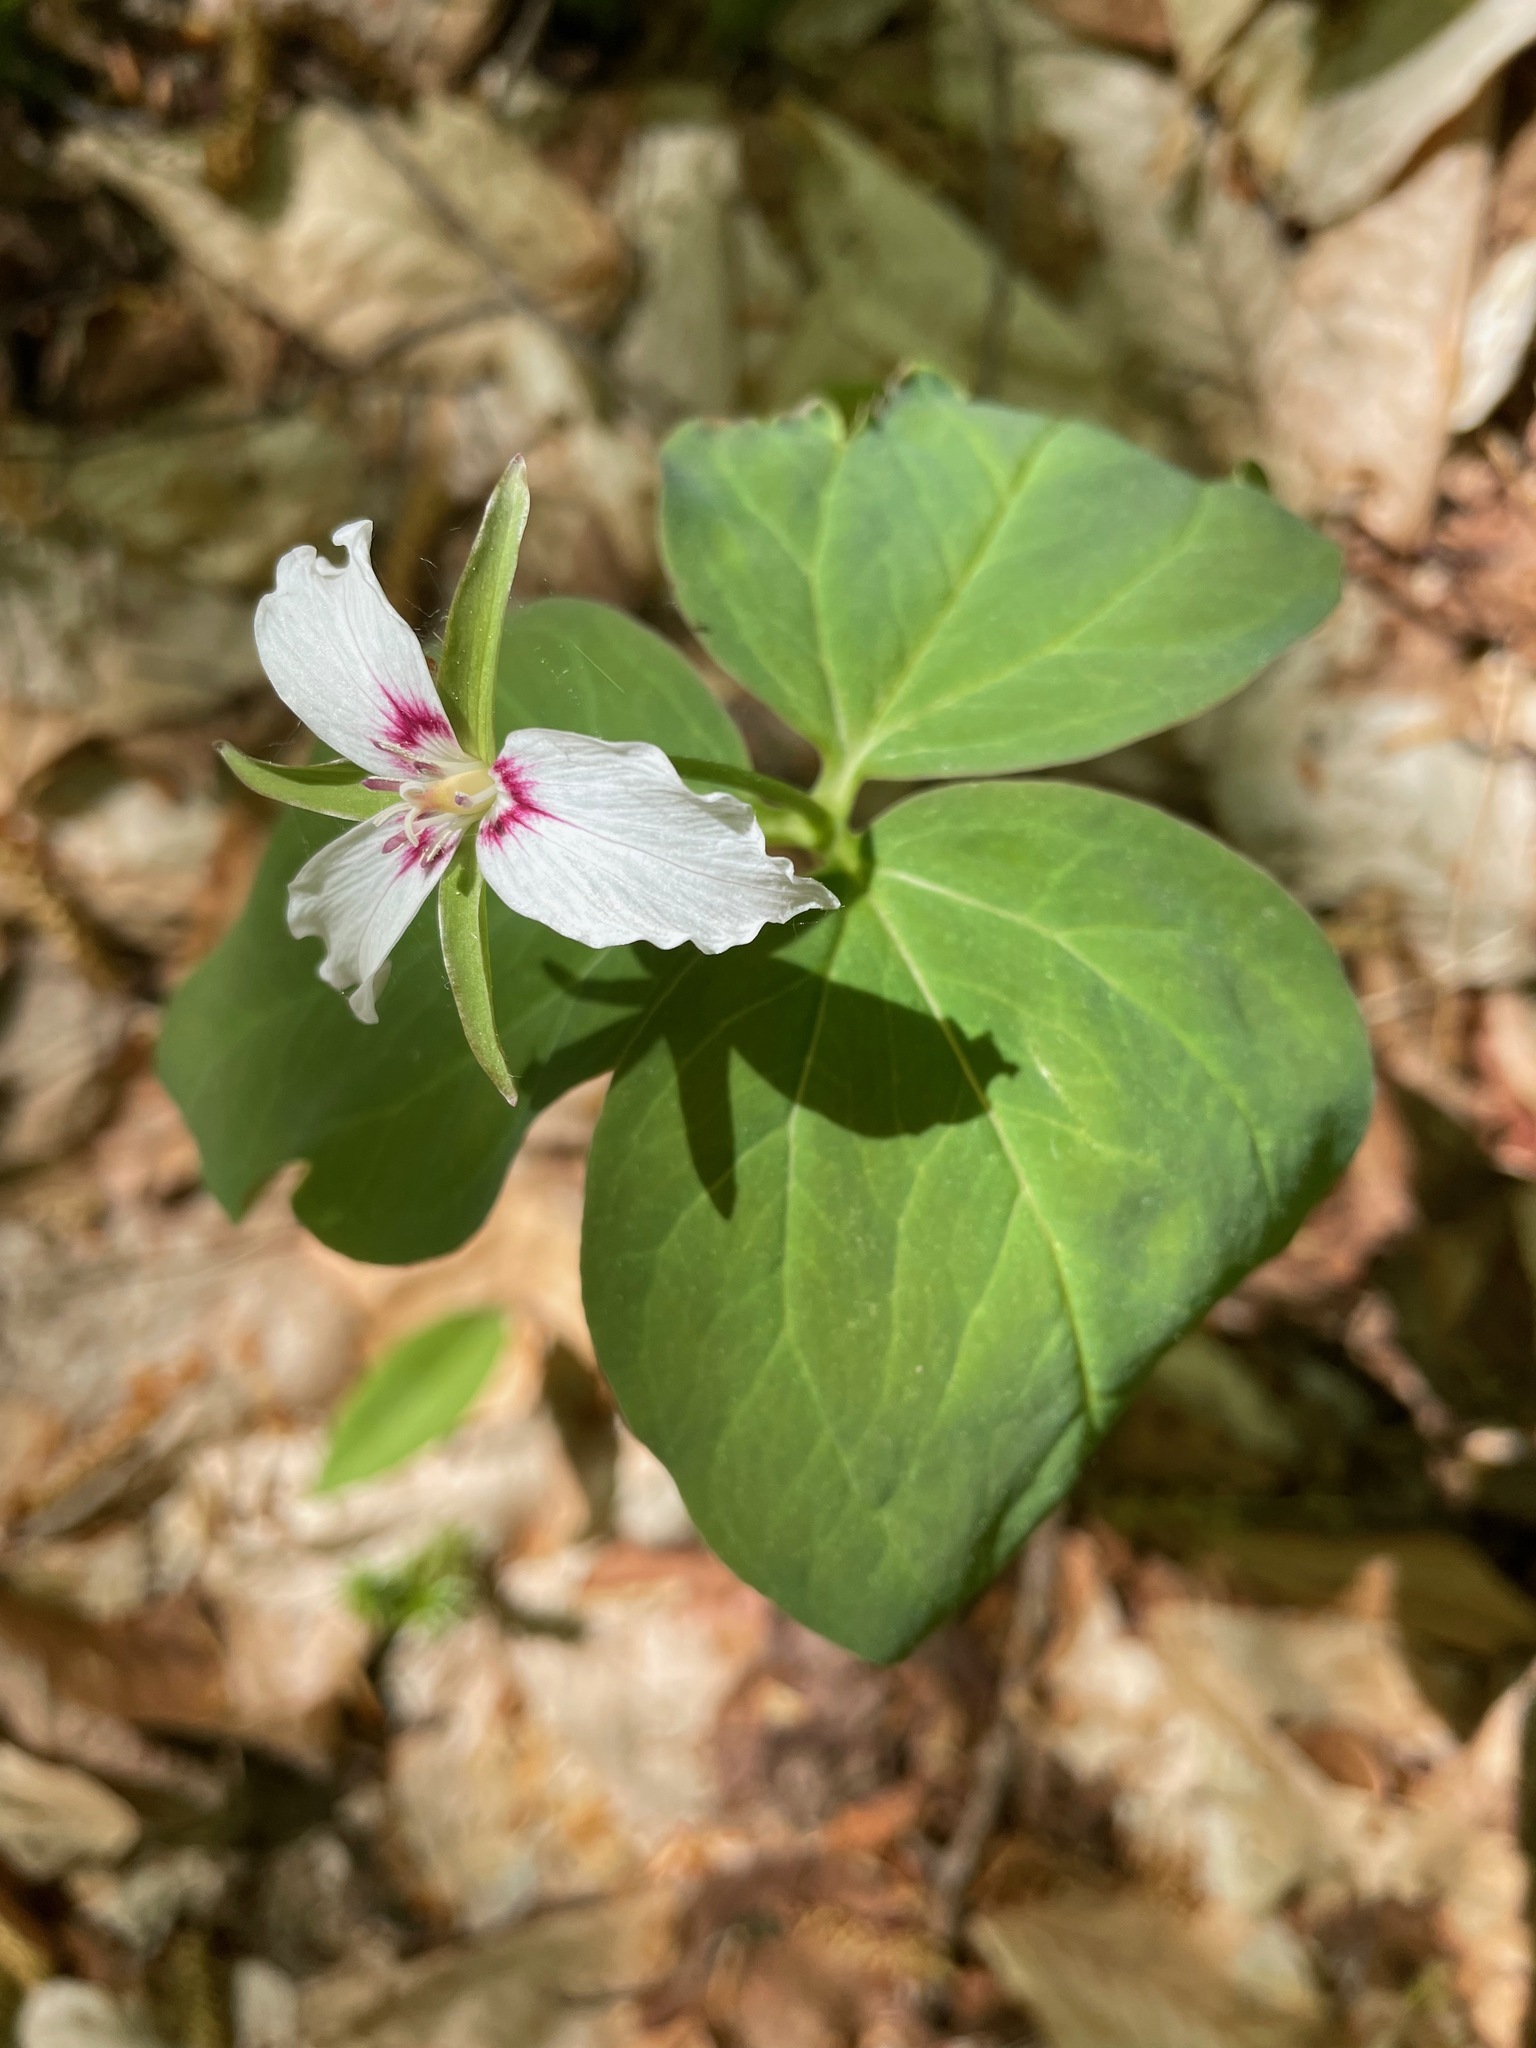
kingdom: Plantae
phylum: Tracheophyta
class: Liliopsida
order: Liliales
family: Melanthiaceae
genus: Trillium
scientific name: Trillium undulatum
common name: Paint trillium
